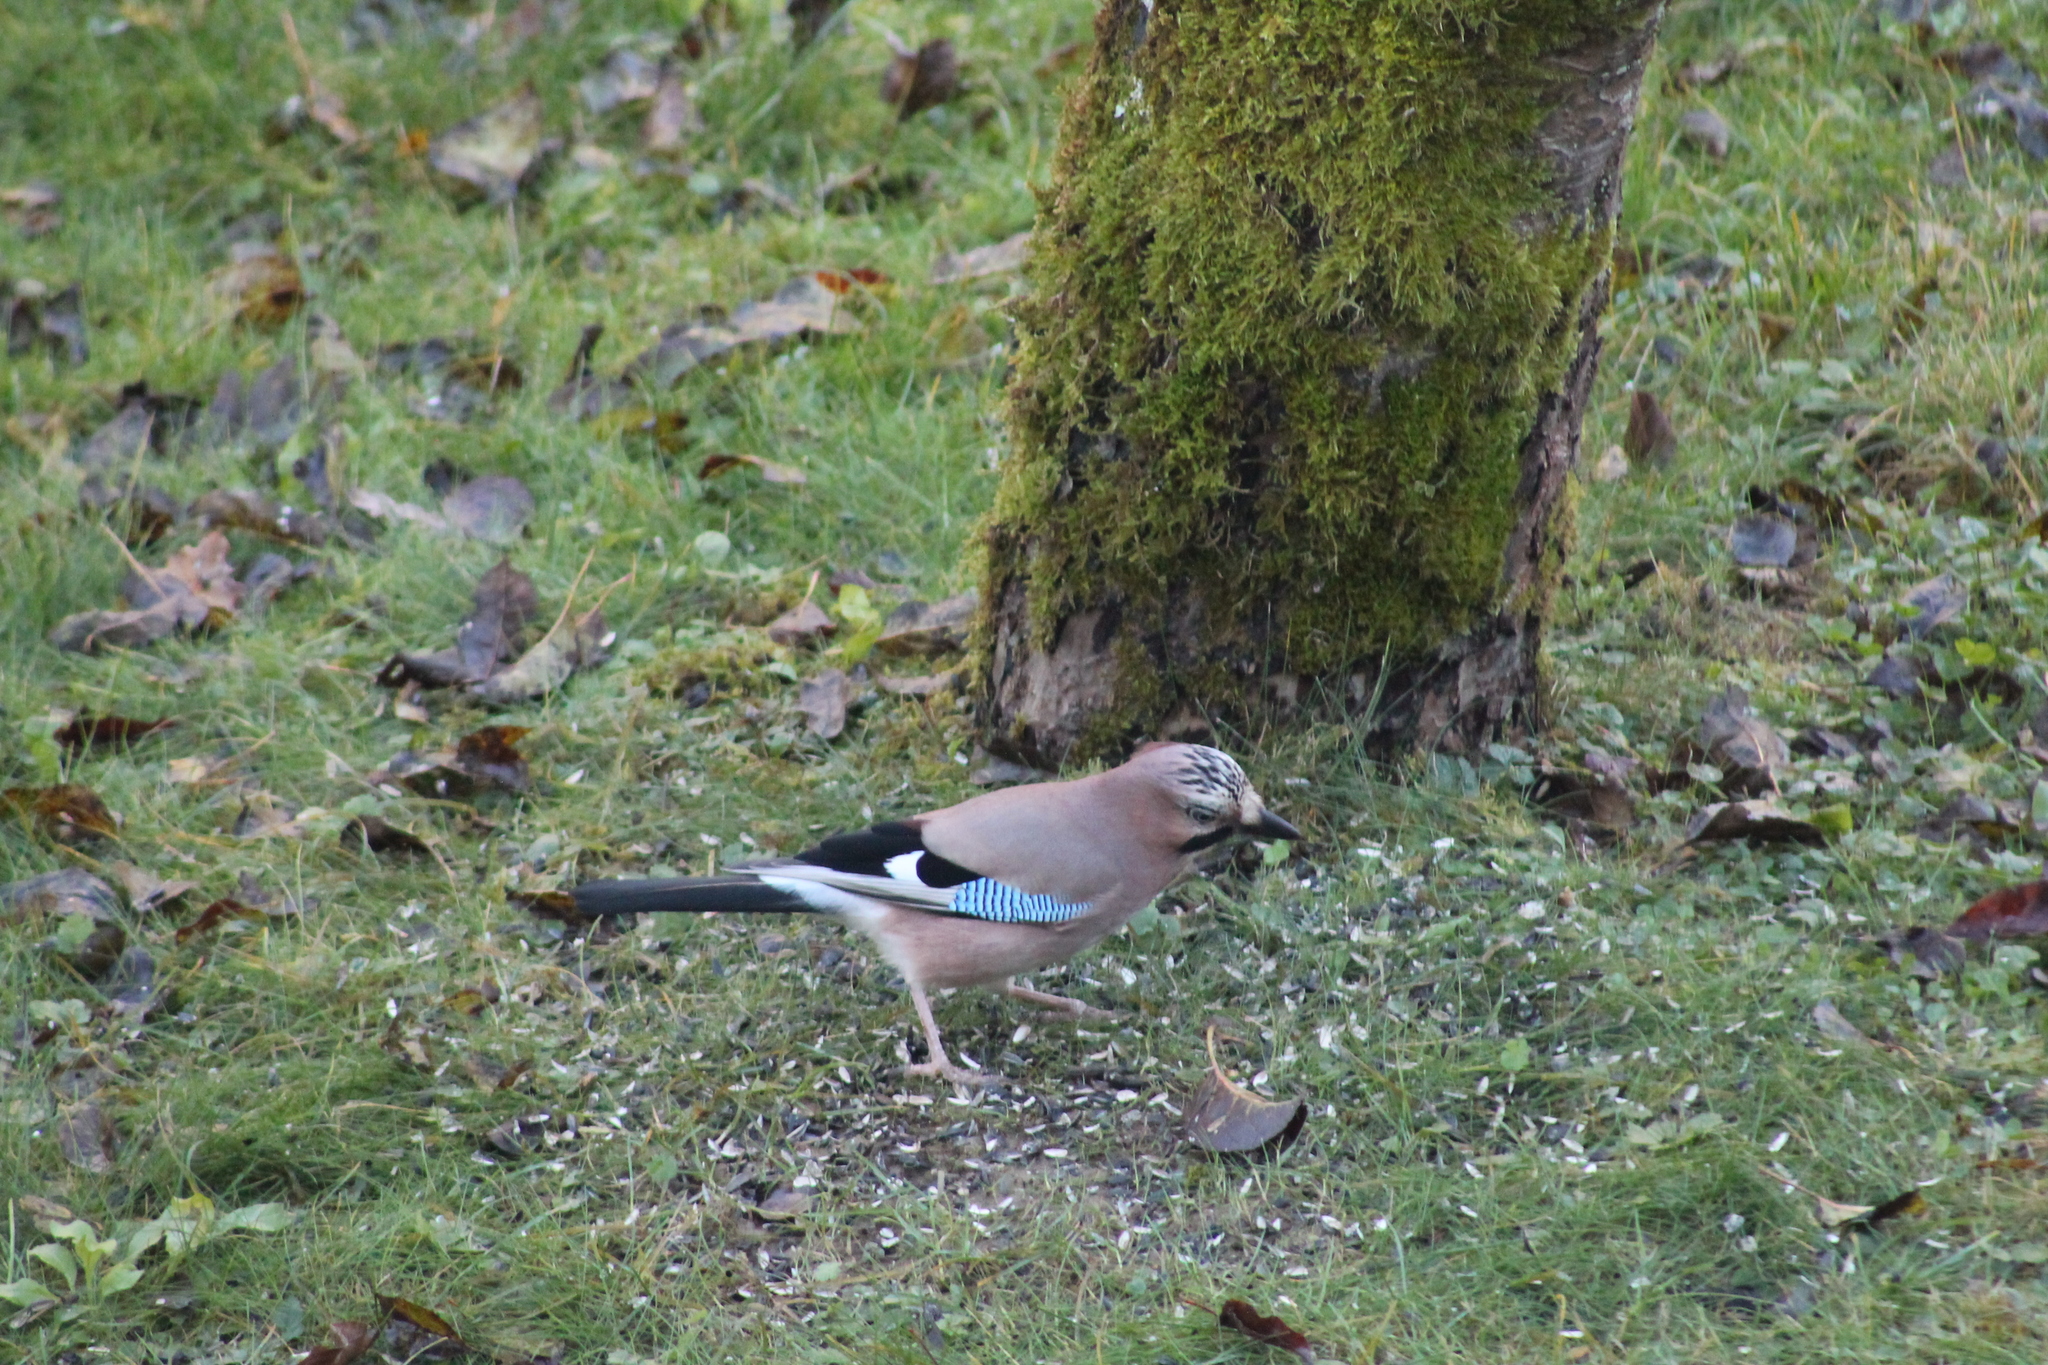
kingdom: Animalia
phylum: Chordata
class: Aves
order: Passeriformes
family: Corvidae
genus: Garrulus
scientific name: Garrulus glandarius
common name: Eurasian jay
